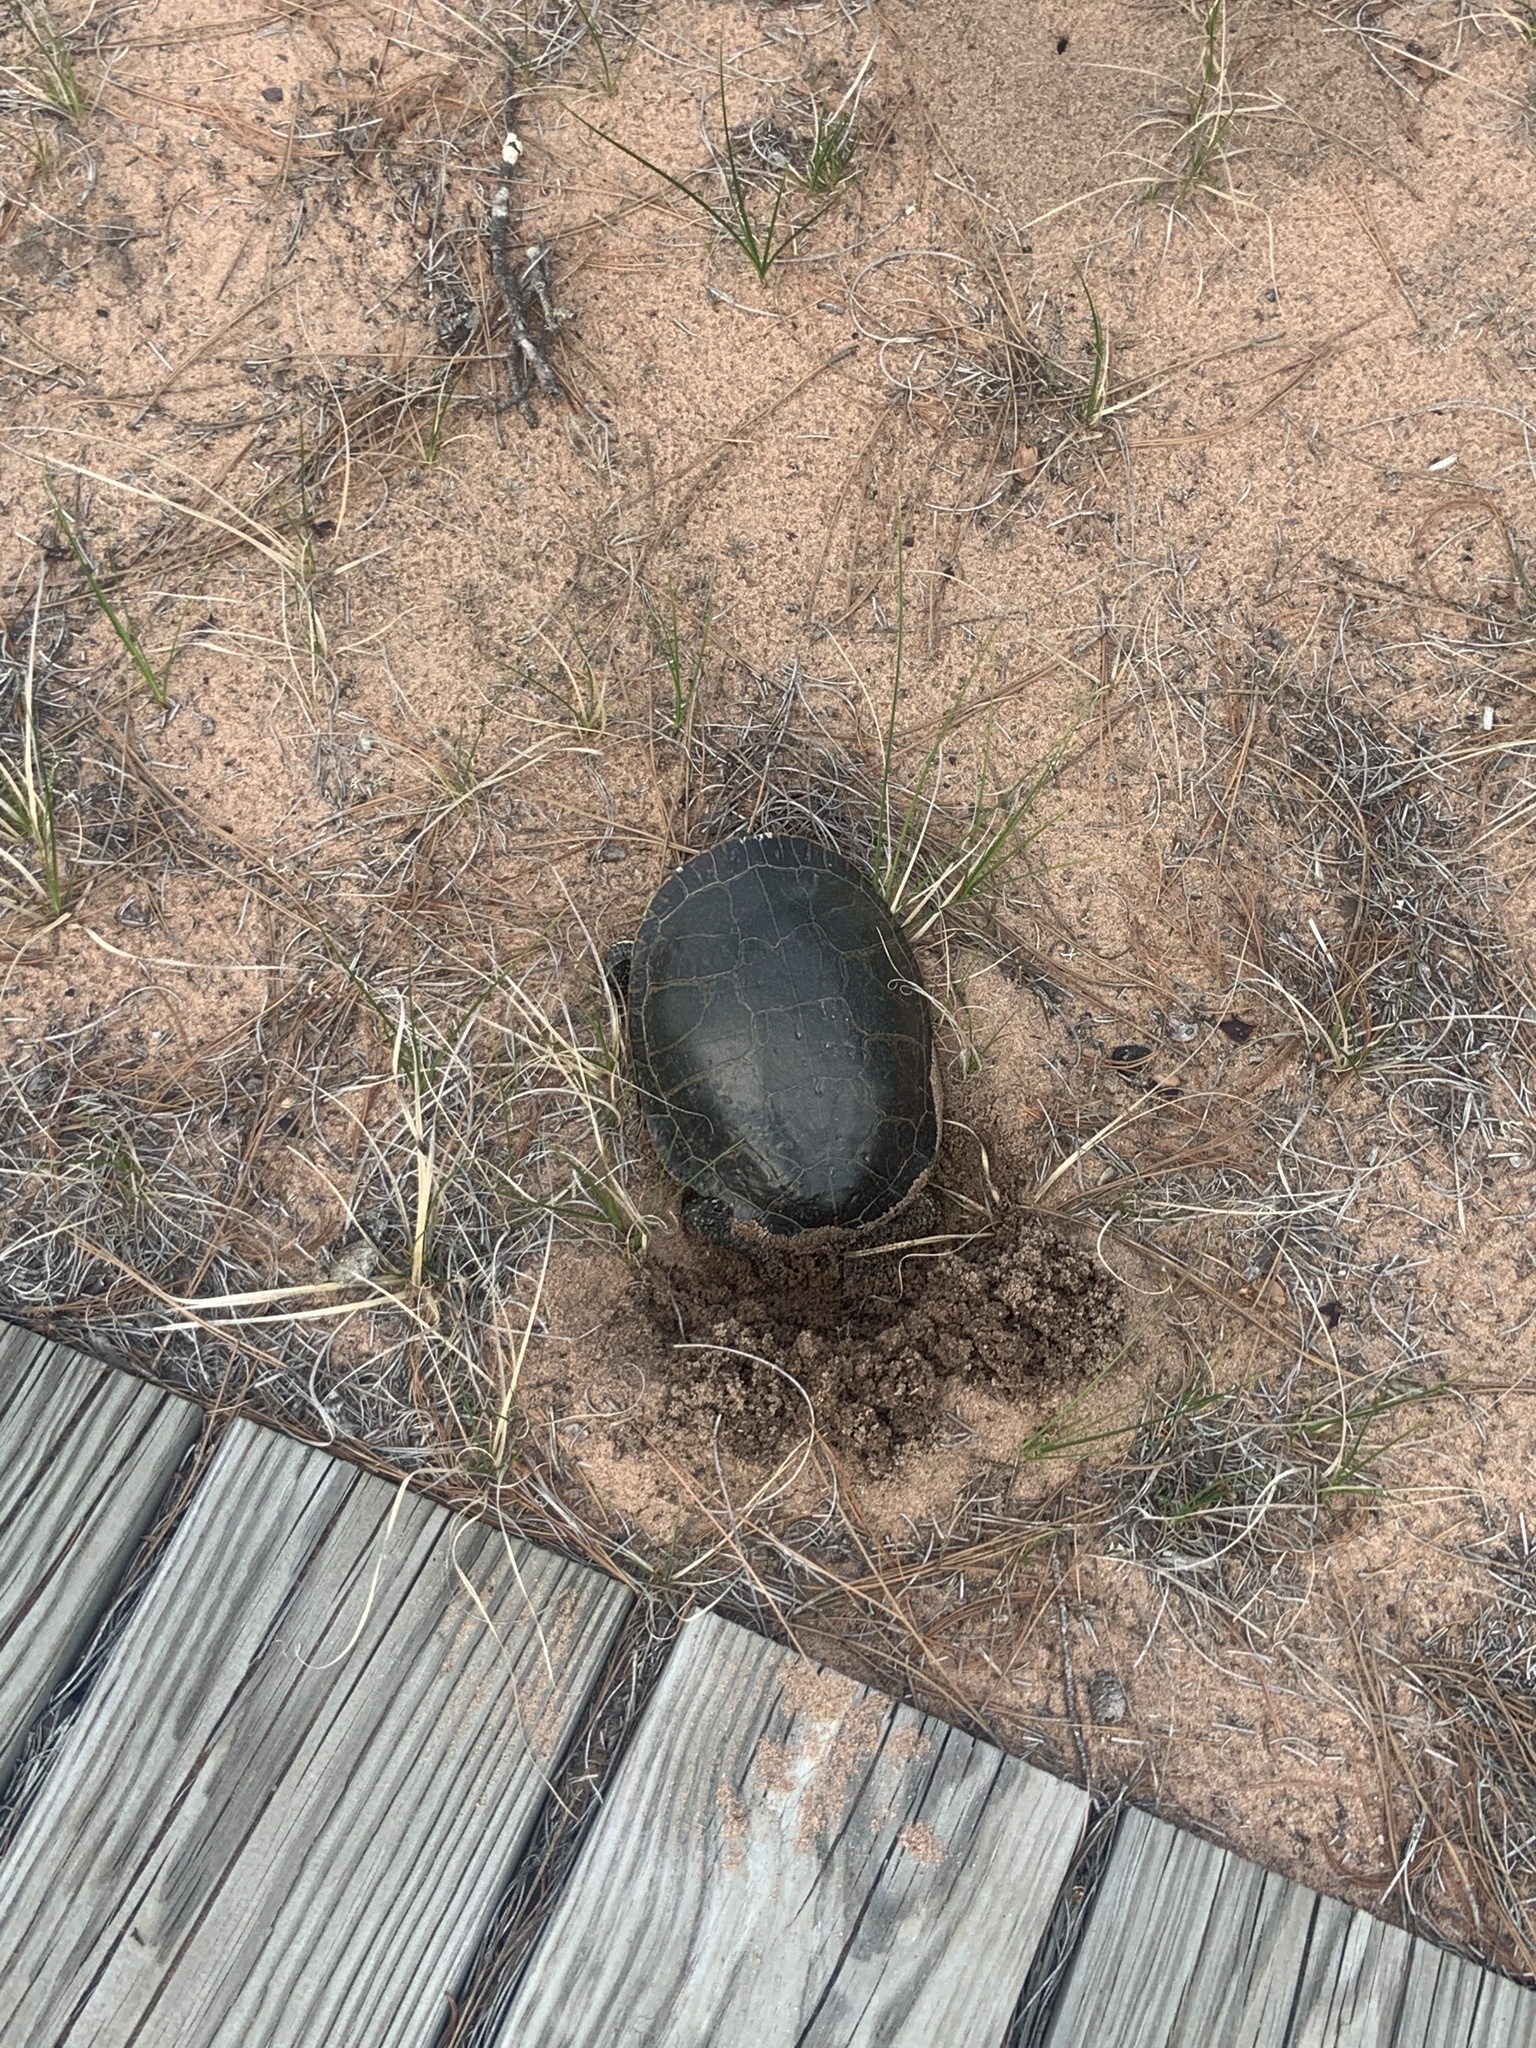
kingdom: Animalia
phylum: Chordata
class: Testudines
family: Emydidae
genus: Chrysemys
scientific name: Chrysemys picta
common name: Painted turtle
